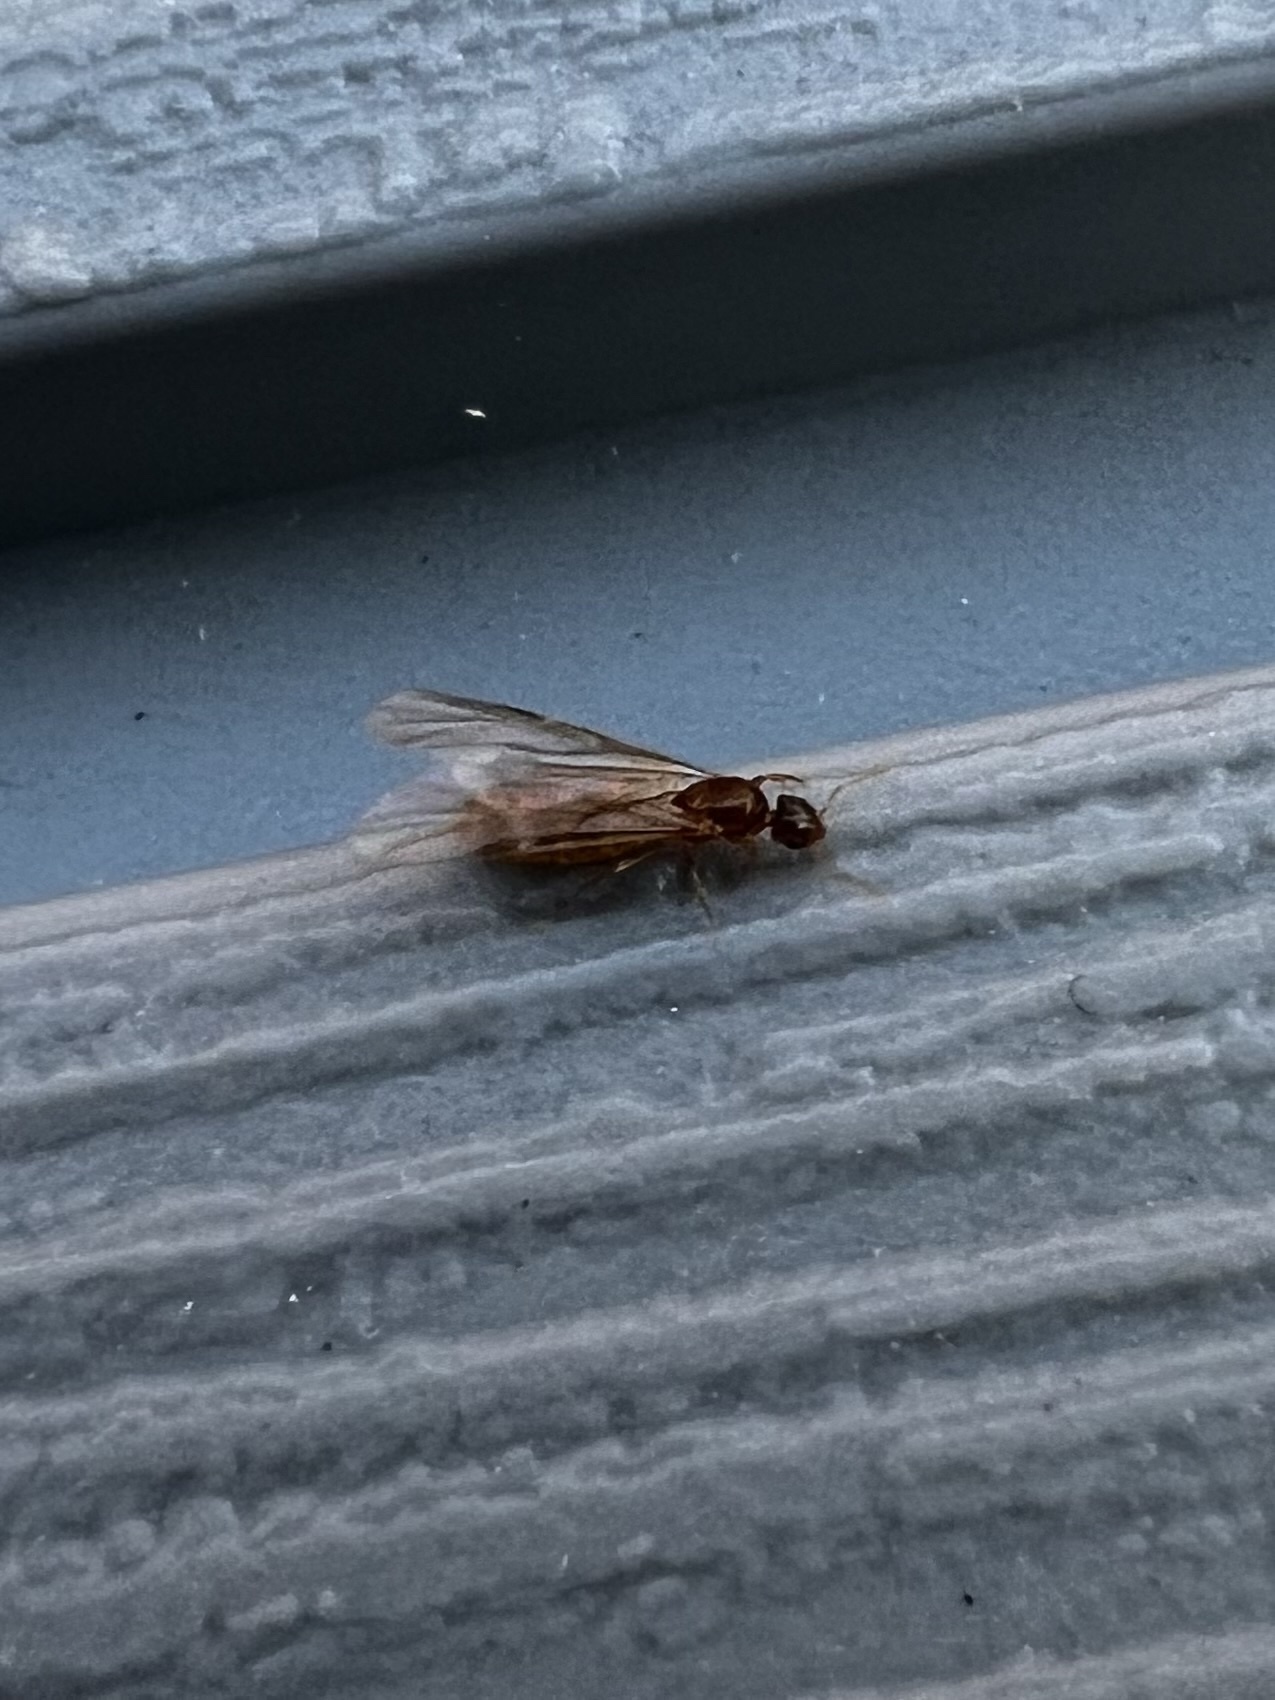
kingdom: Animalia
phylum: Arthropoda
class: Insecta
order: Hymenoptera
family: Formicidae
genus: Brachymyrmex
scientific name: Brachymyrmex depilis
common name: Hairless rover ant
